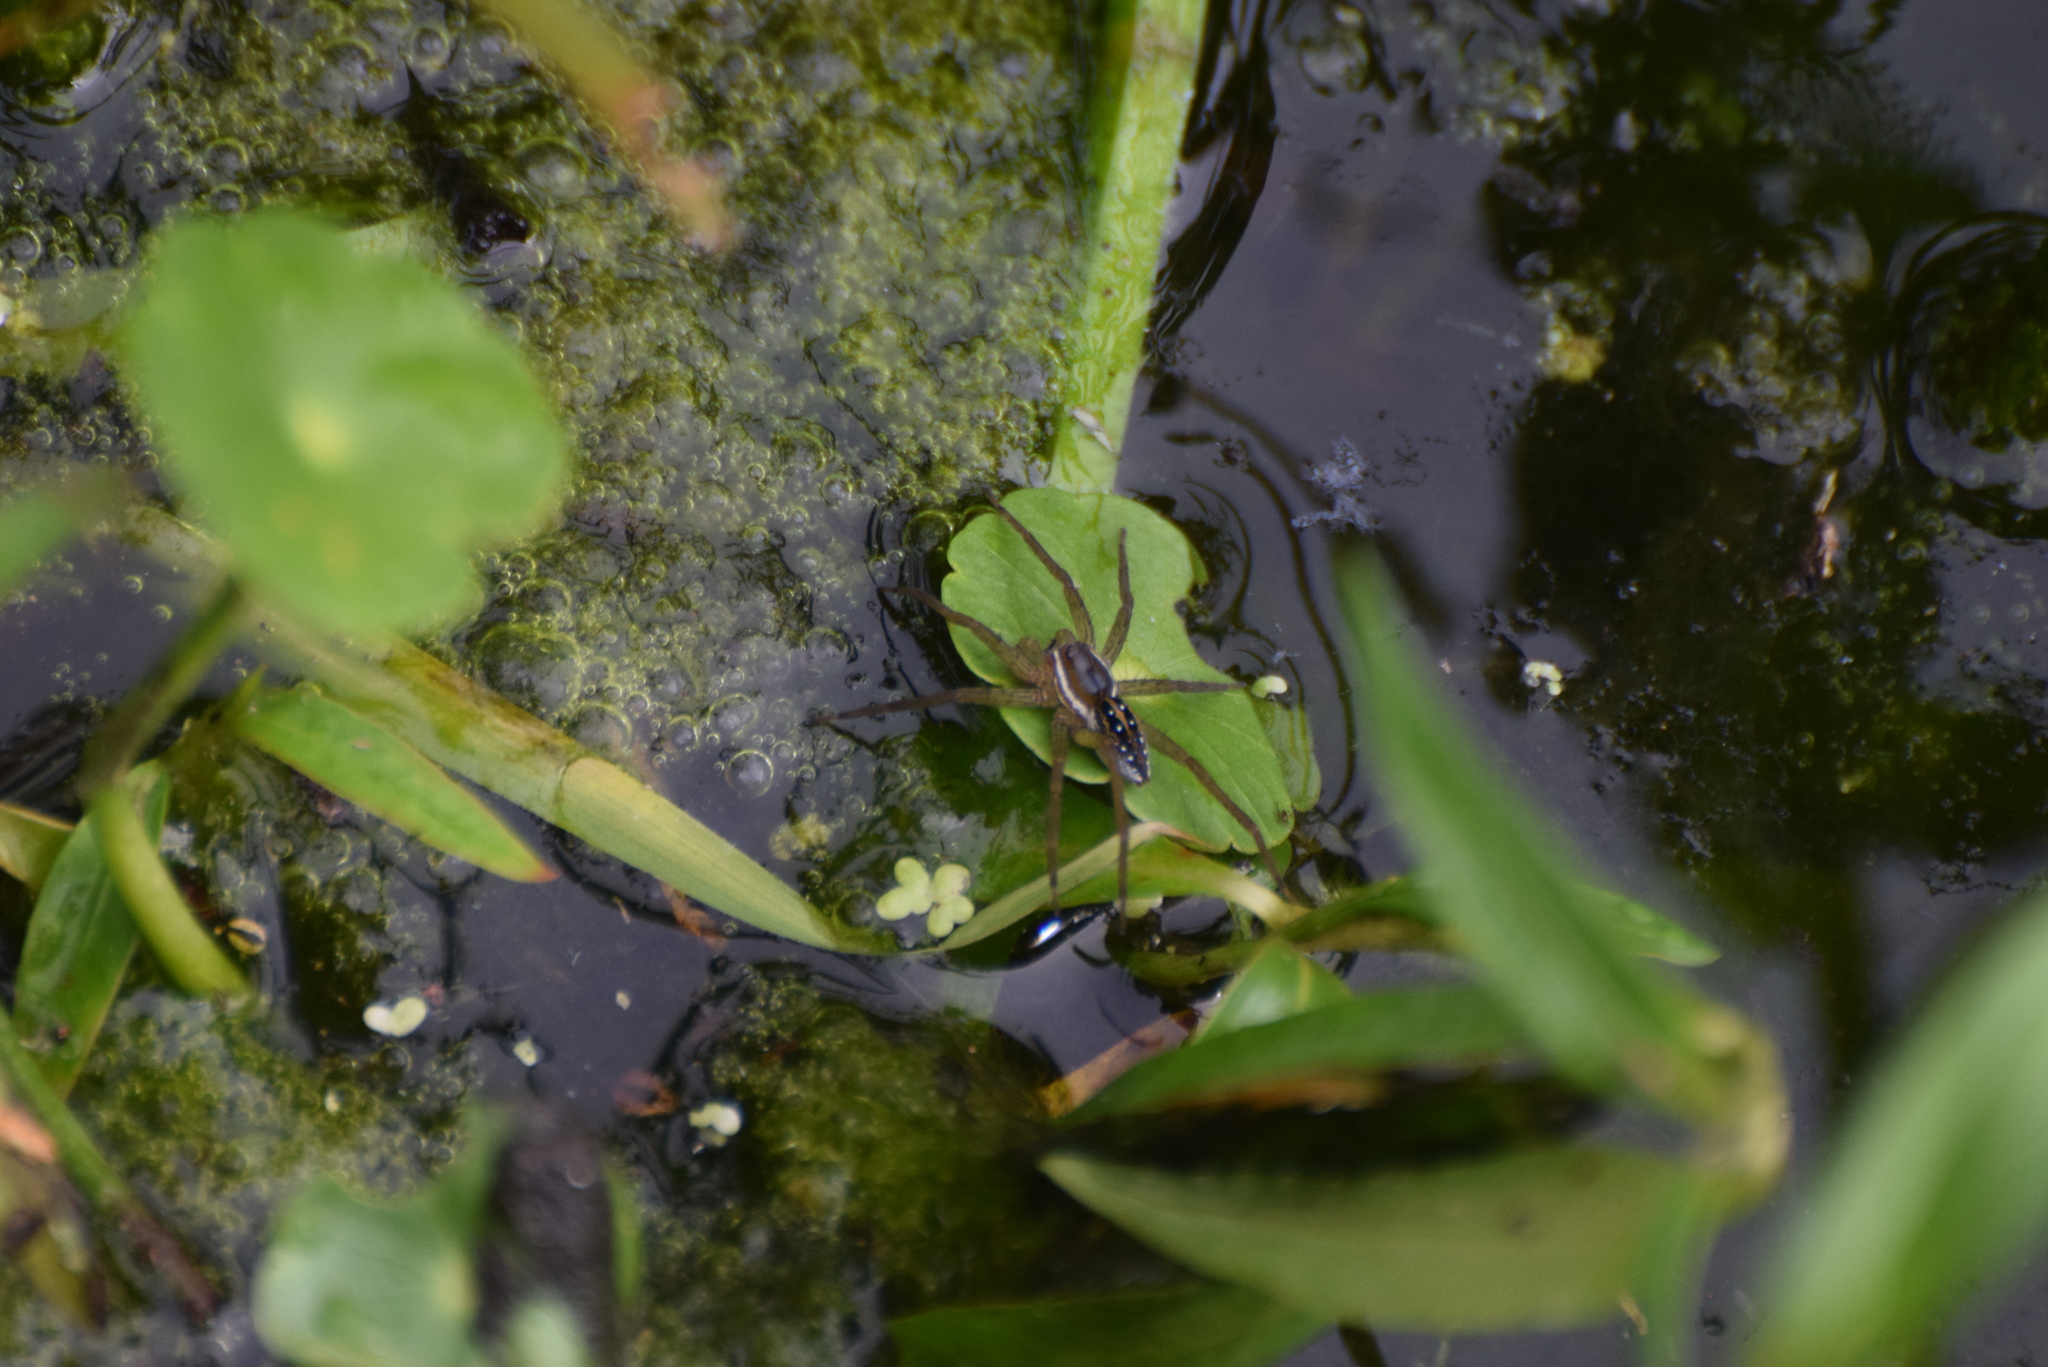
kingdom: Animalia
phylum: Arthropoda
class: Arachnida
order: Araneae
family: Pisauridae
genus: Dolomedes
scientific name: Dolomedes triton
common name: Six-spotted fishing spider
